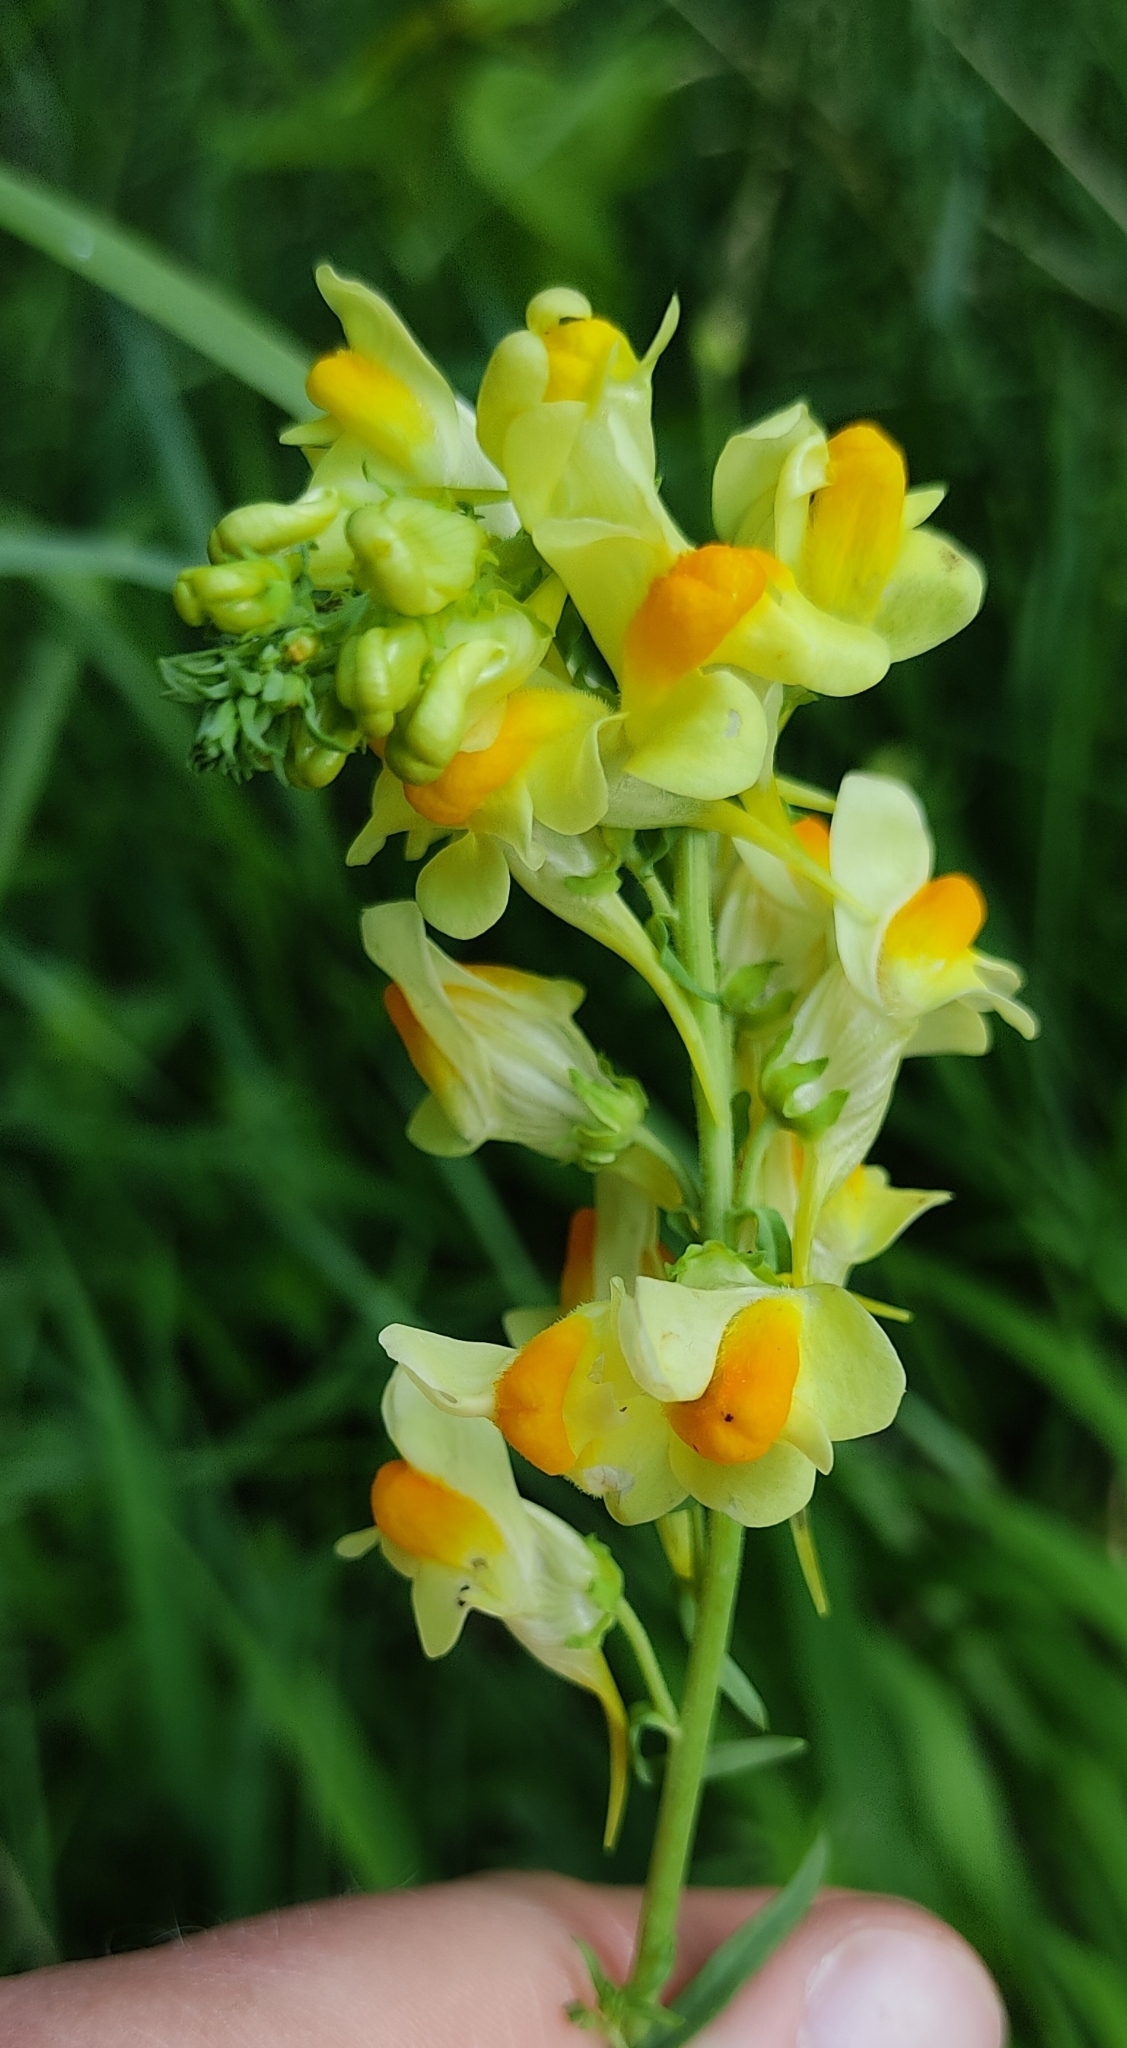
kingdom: Plantae
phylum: Tracheophyta
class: Magnoliopsida
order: Lamiales
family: Plantaginaceae
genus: Linaria
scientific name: Linaria vulgaris
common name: Butter and eggs
